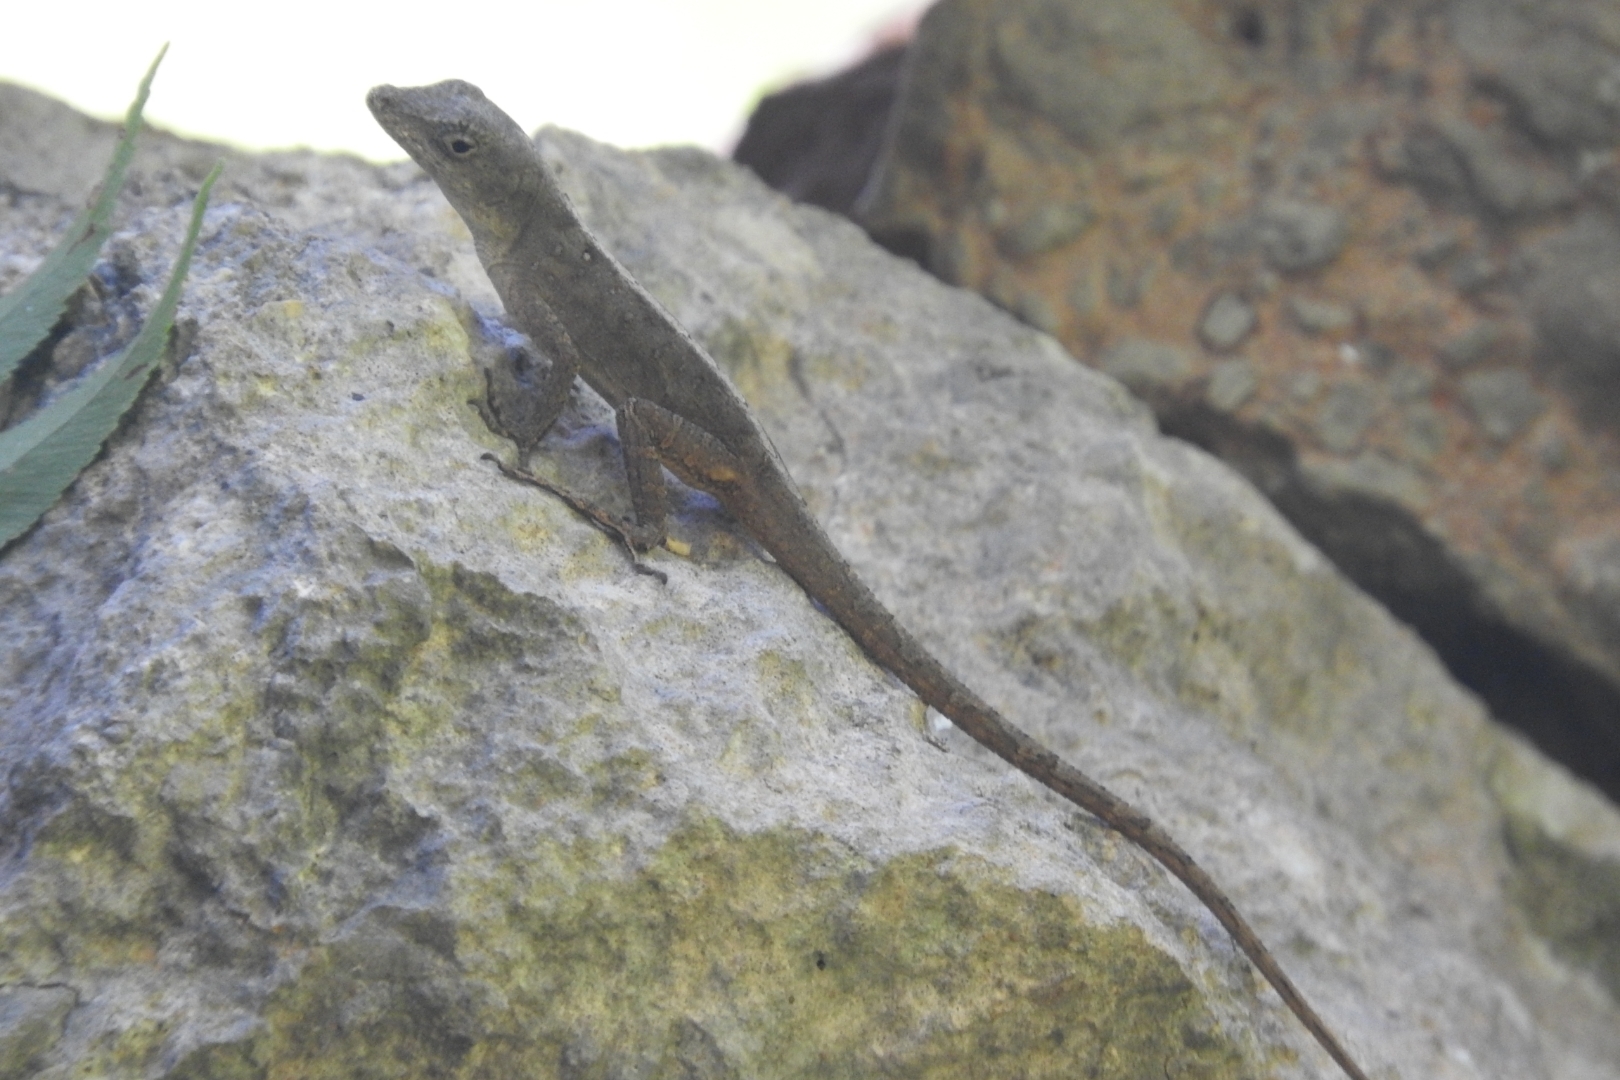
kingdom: Animalia
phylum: Chordata
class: Squamata
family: Dactyloidae
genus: Anolis
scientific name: Anolis sagrei
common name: Brown anole
